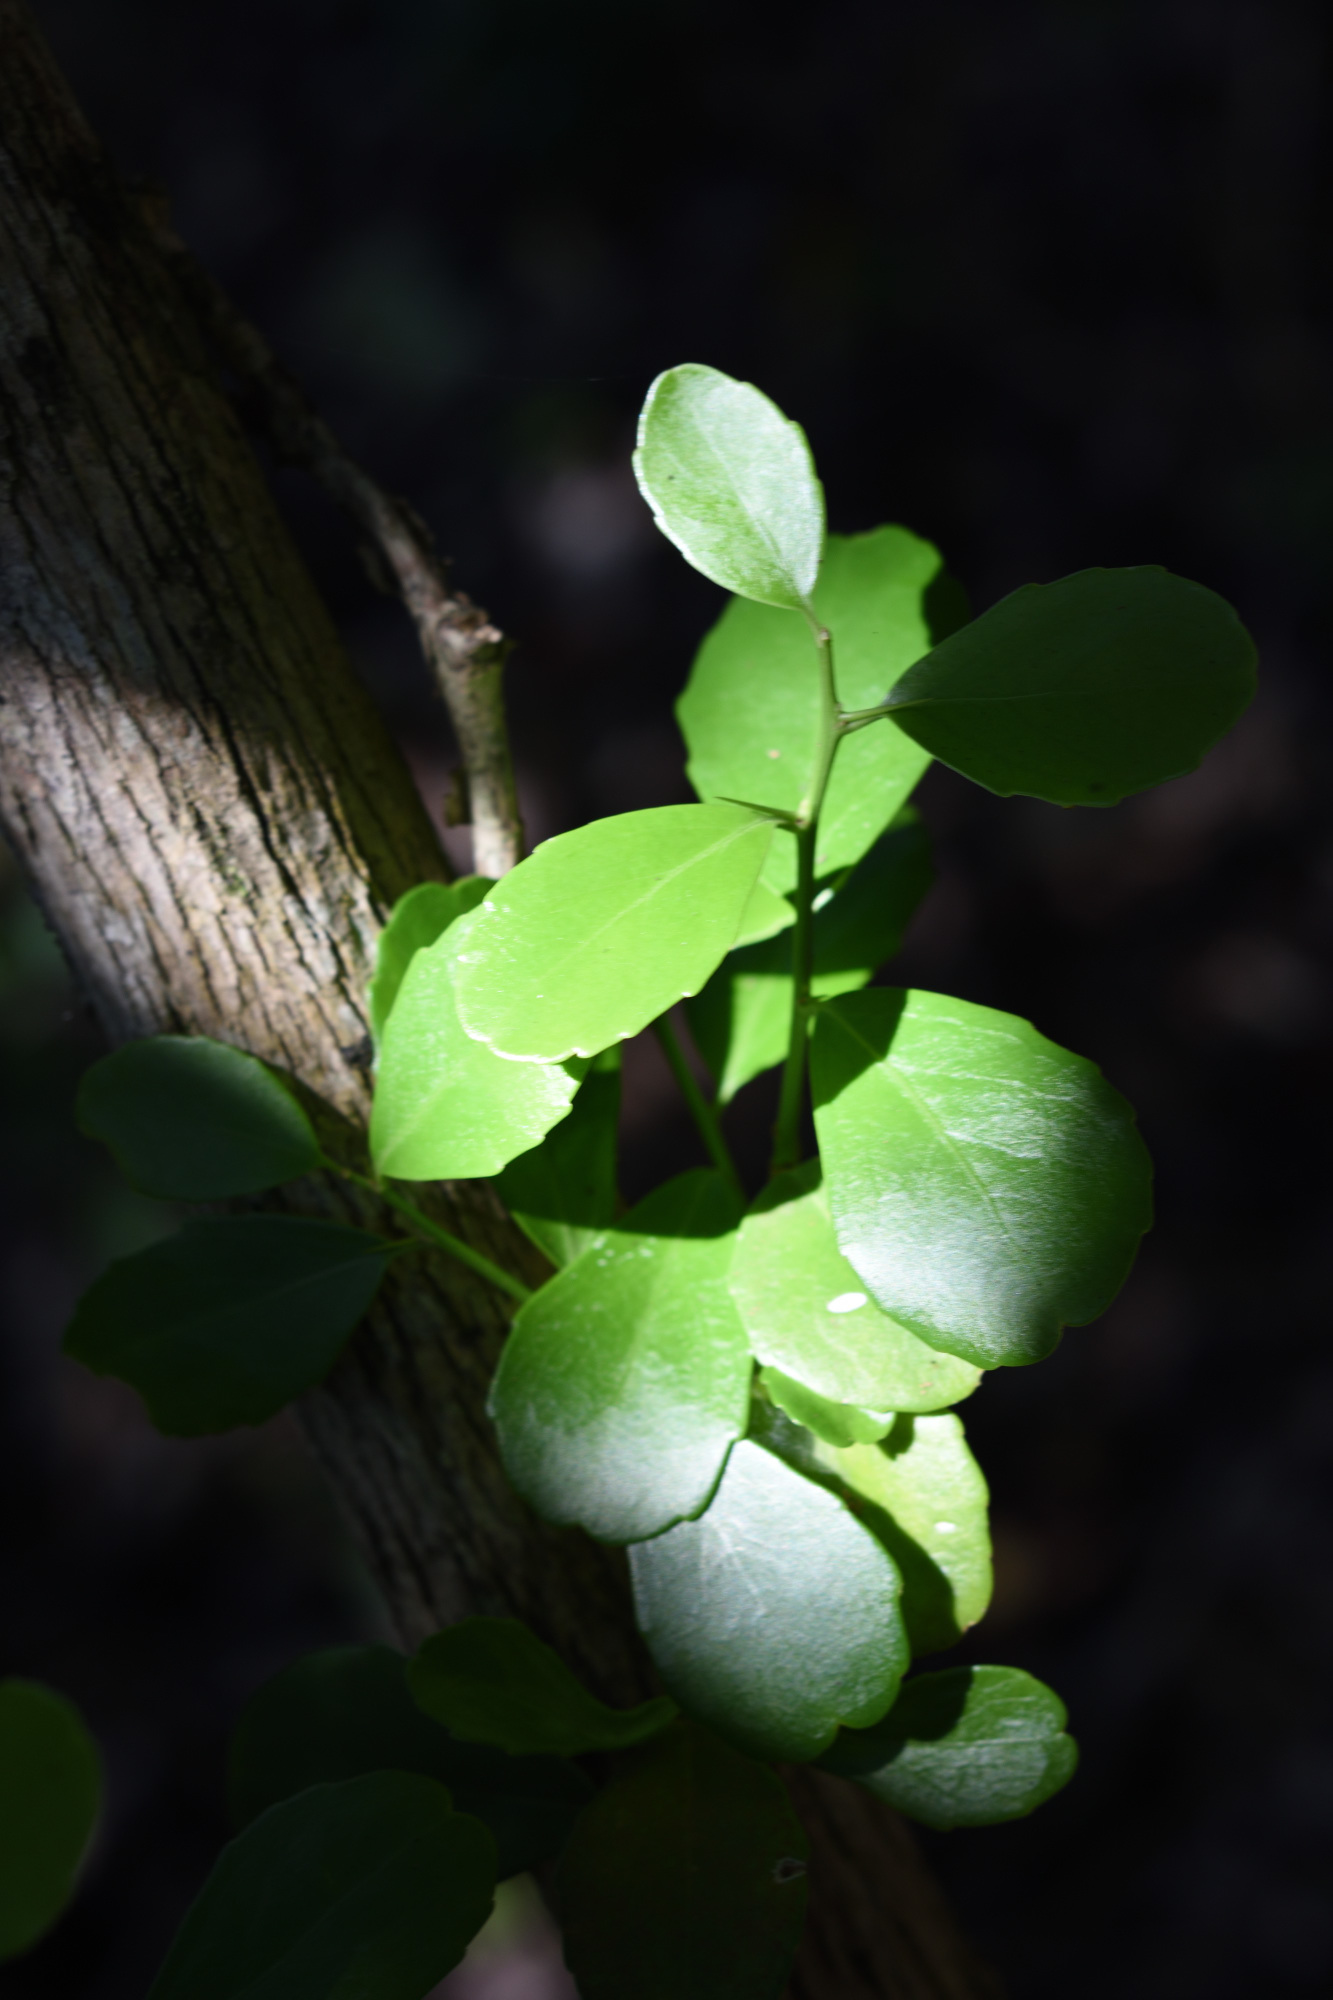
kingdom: Plantae
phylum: Tracheophyta
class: Magnoliopsida
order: Celastrales
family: Celastraceae
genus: Gymnosporia
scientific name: Gymnosporia nemorosa
